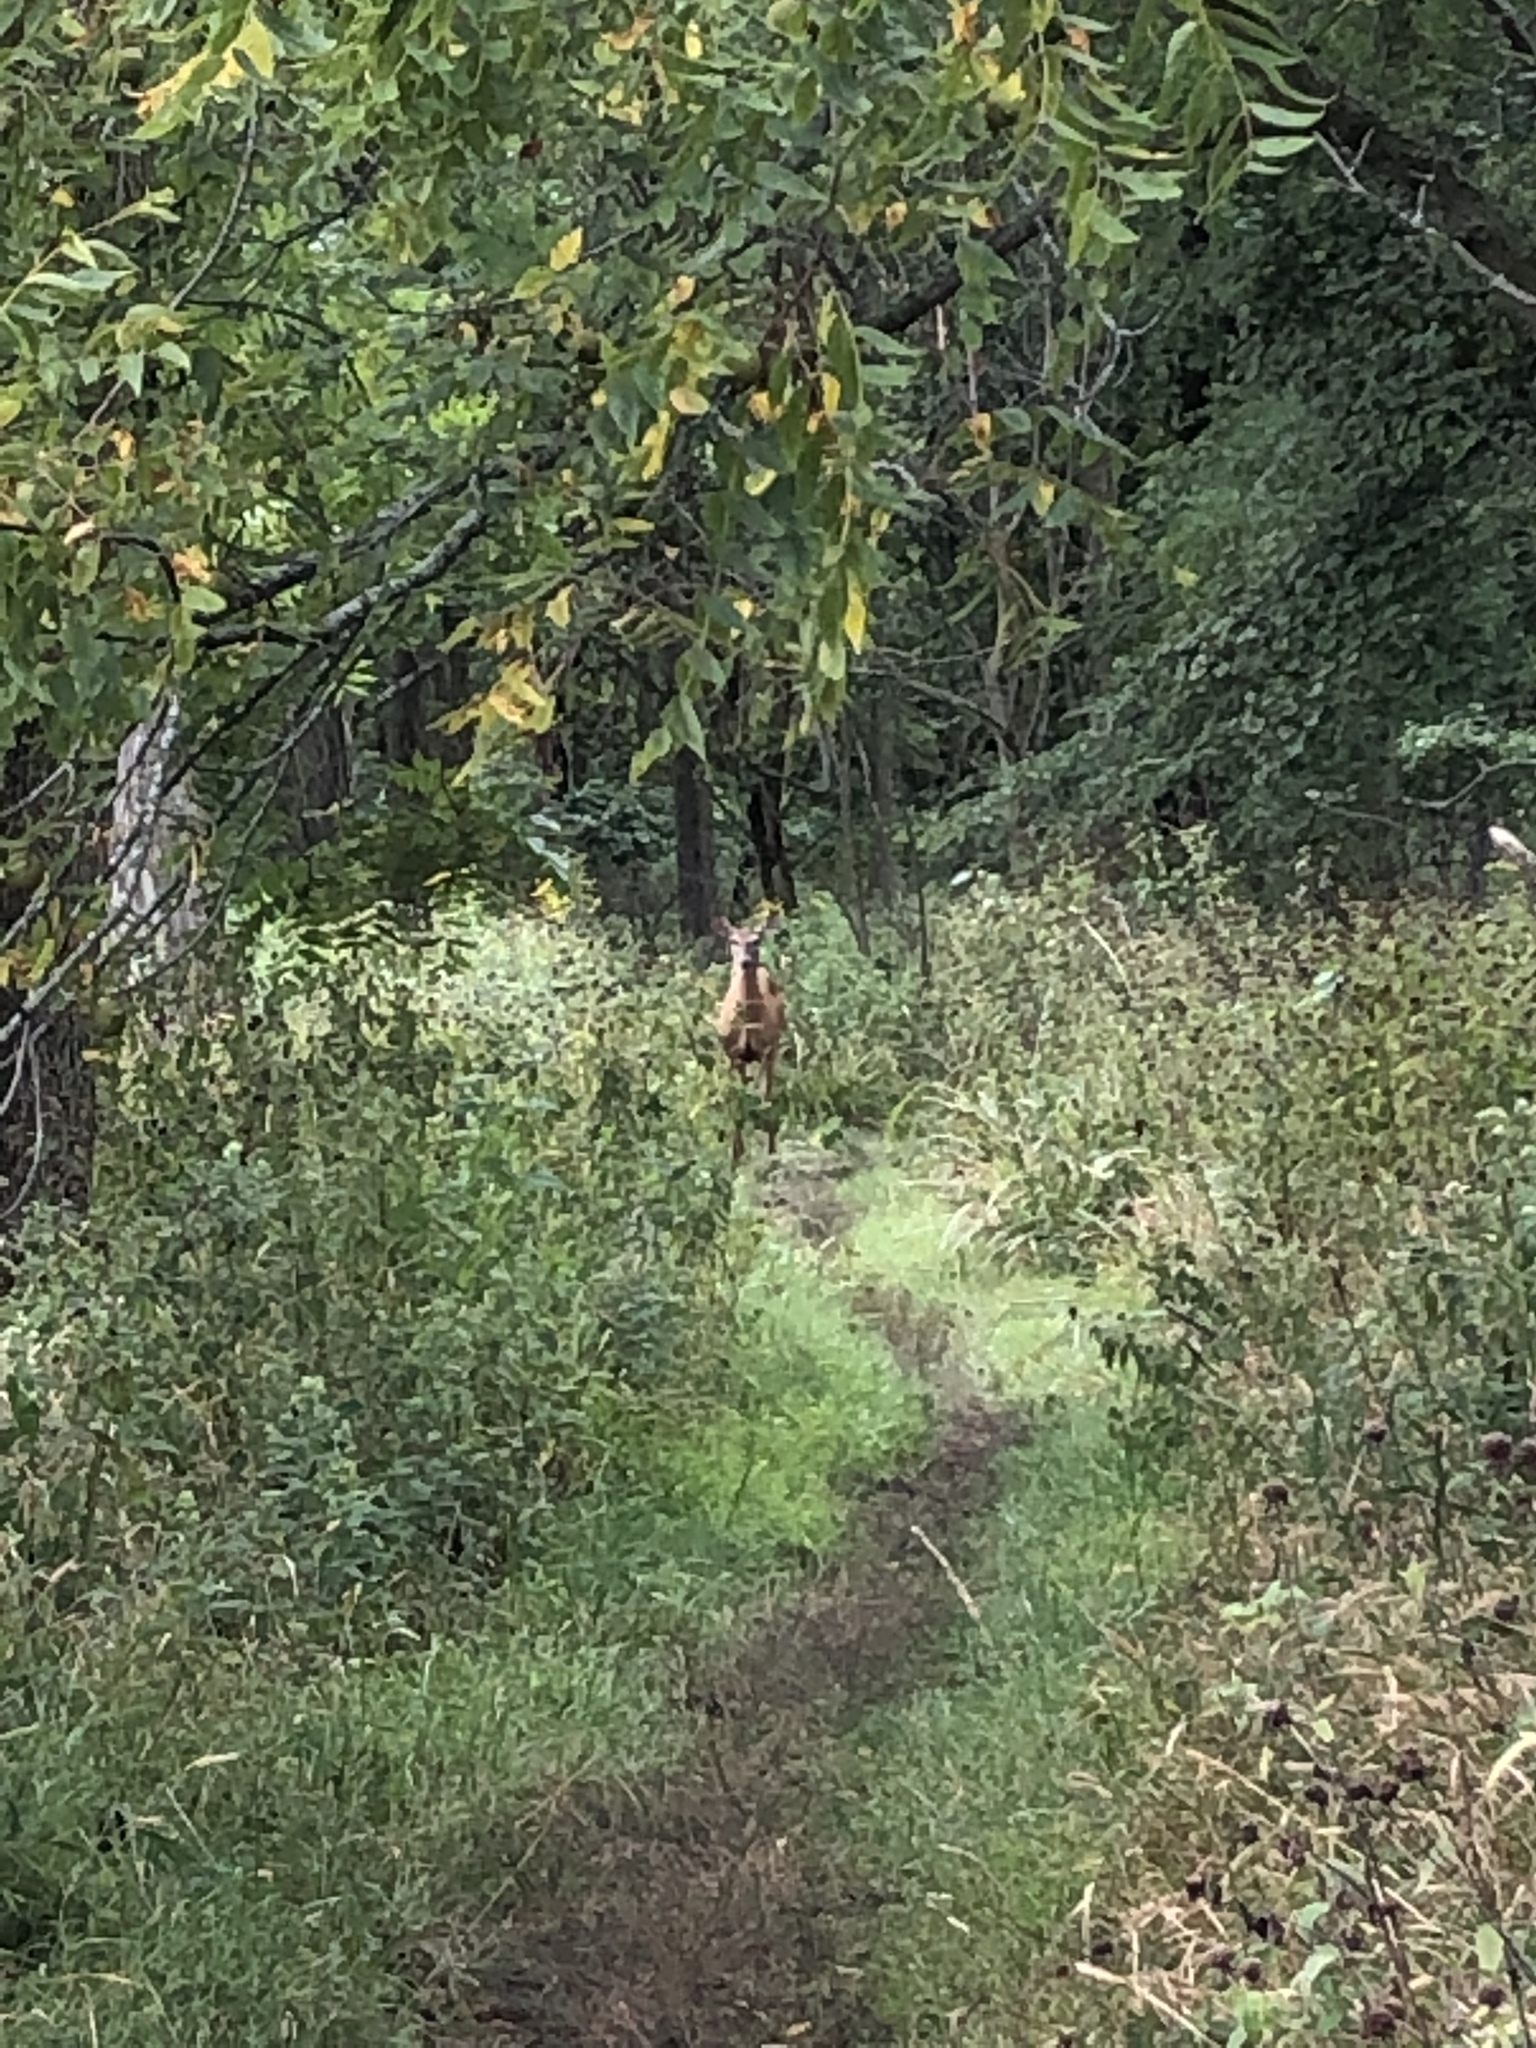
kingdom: Animalia
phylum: Chordata
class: Mammalia
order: Artiodactyla
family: Cervidae
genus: Odocoileus
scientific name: Odocoileus virginianus
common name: White-tailed deer
